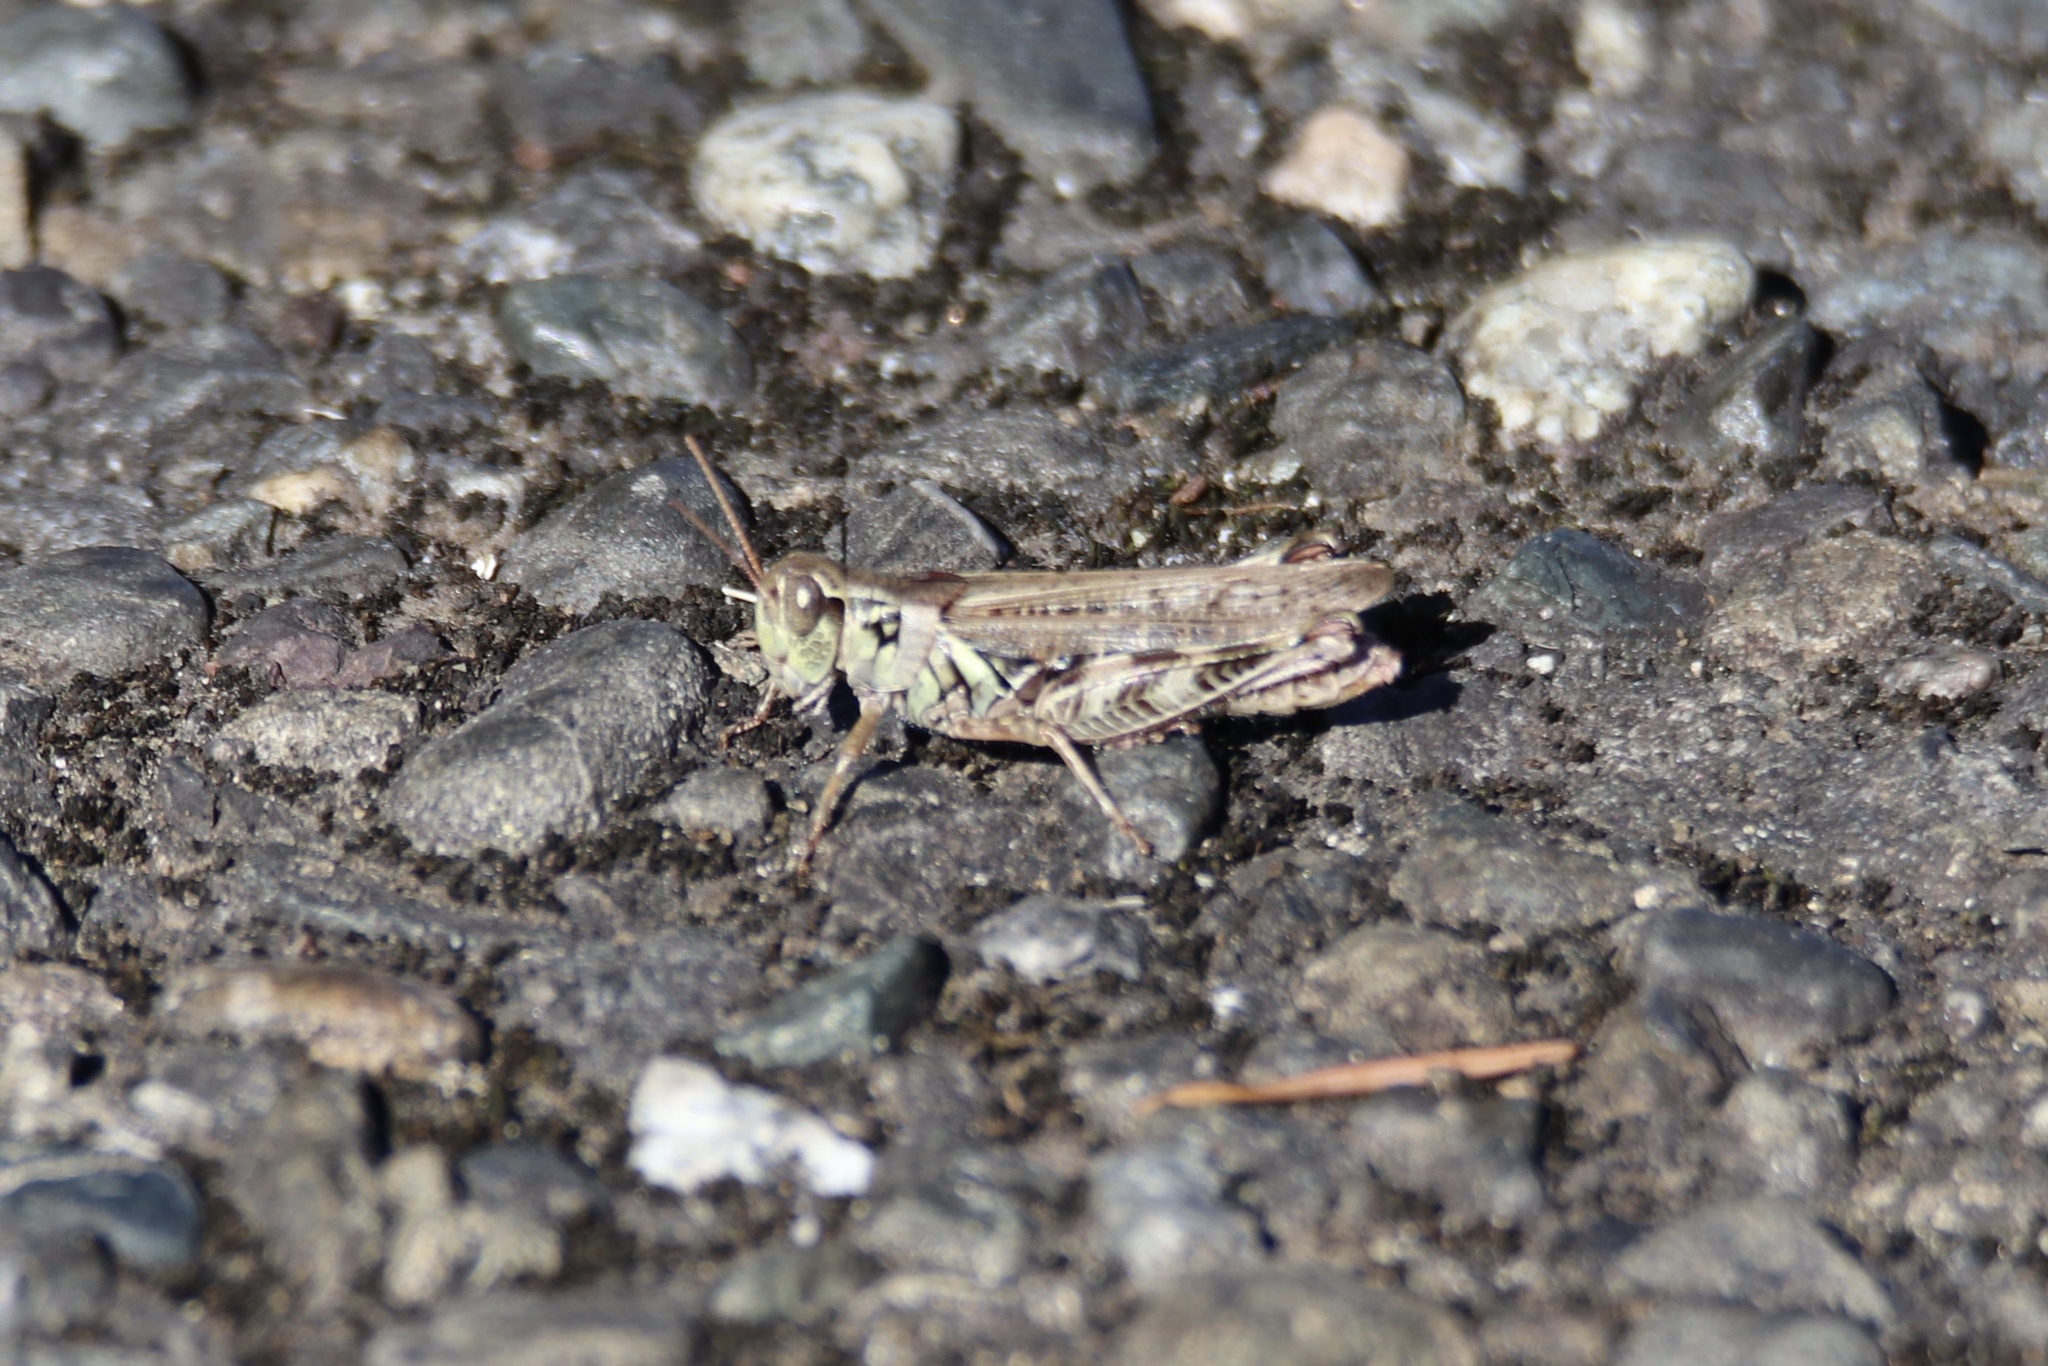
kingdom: Animalia
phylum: Arthropoda
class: Insecta
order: Orthoptera
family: Acrididae
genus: Melanoplus
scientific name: Melanoplus sanguinipes
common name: Migratory grasshopper
